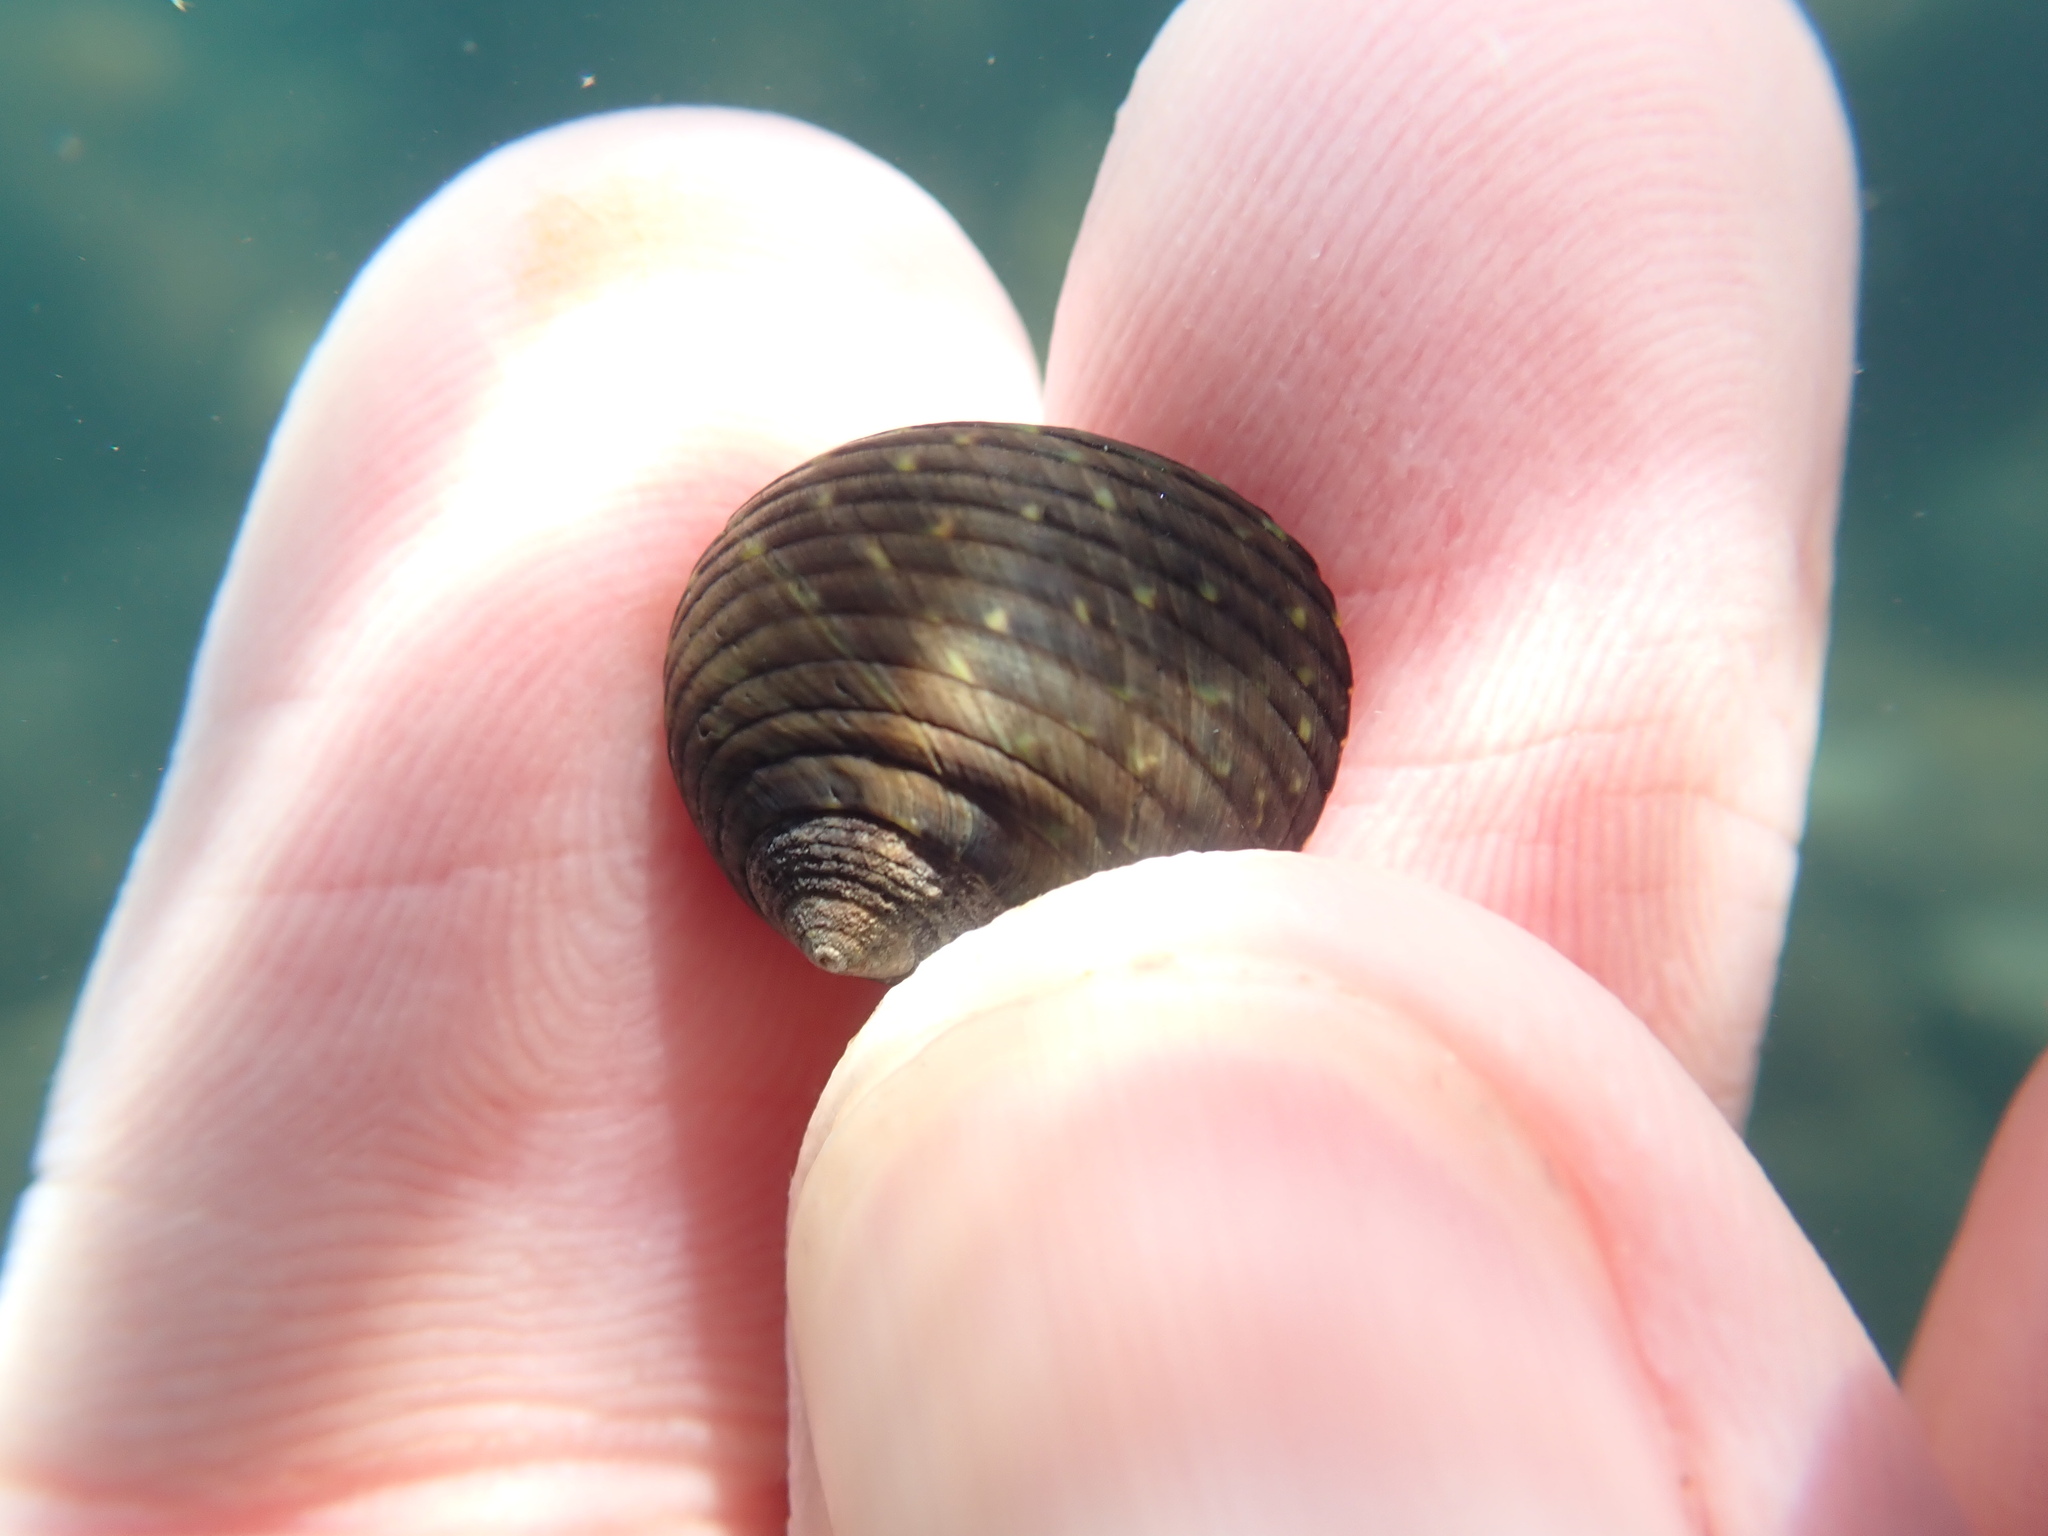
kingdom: Animalia
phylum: Mollusca
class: Gastropoda
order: Trochida
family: Trochidae
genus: Diloma
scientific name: Diloma aridum
